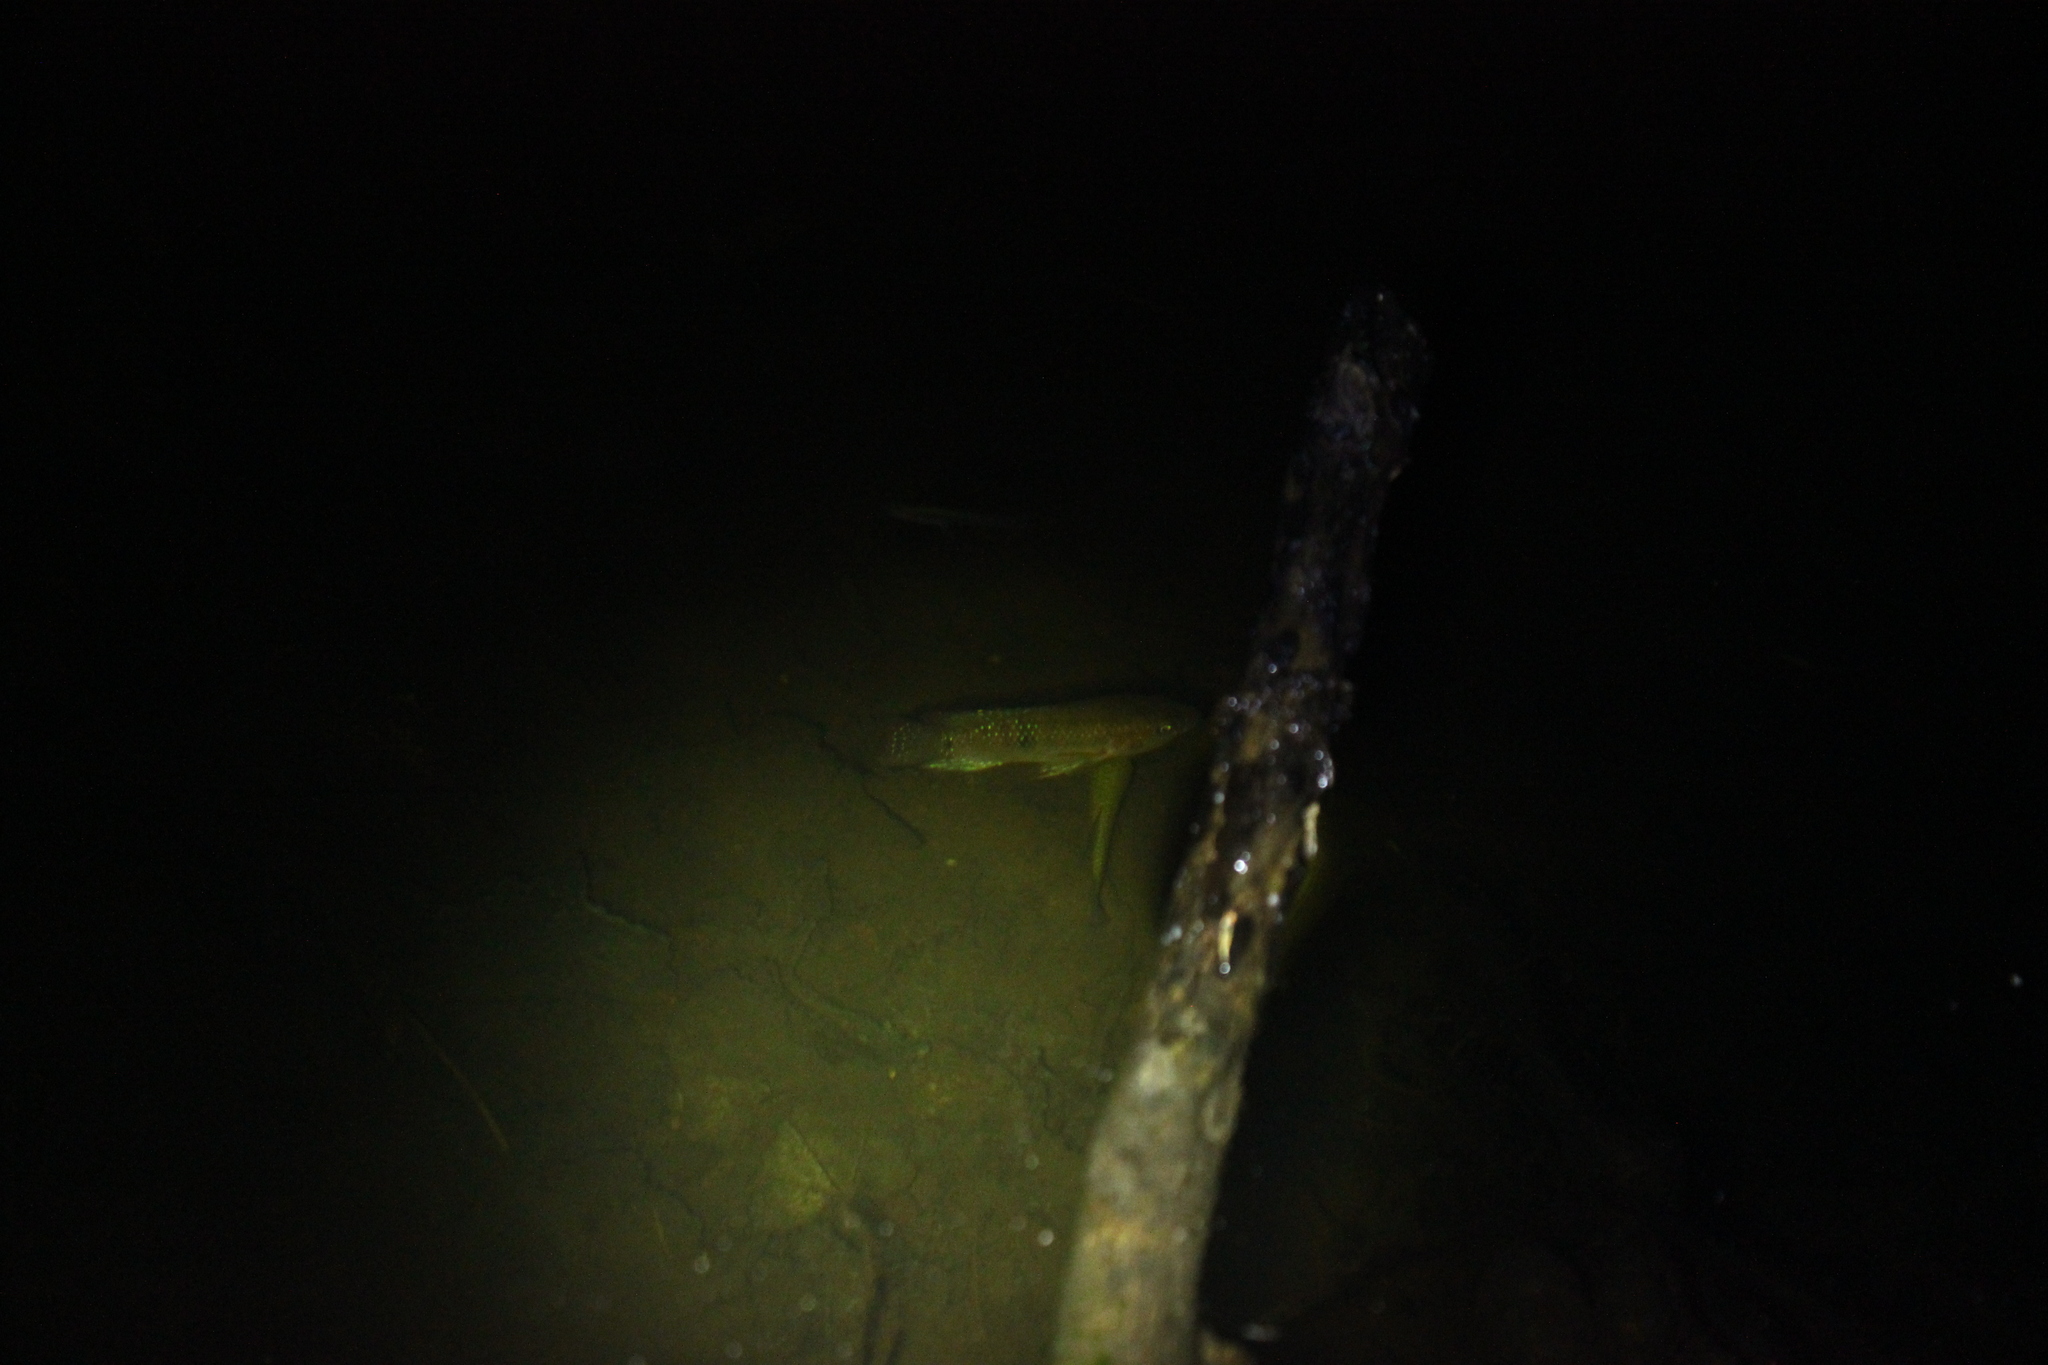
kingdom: Animalia
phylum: Chordata
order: Perciformes
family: Cichlidae
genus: Rubricatochromis
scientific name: Rubricatochromis
